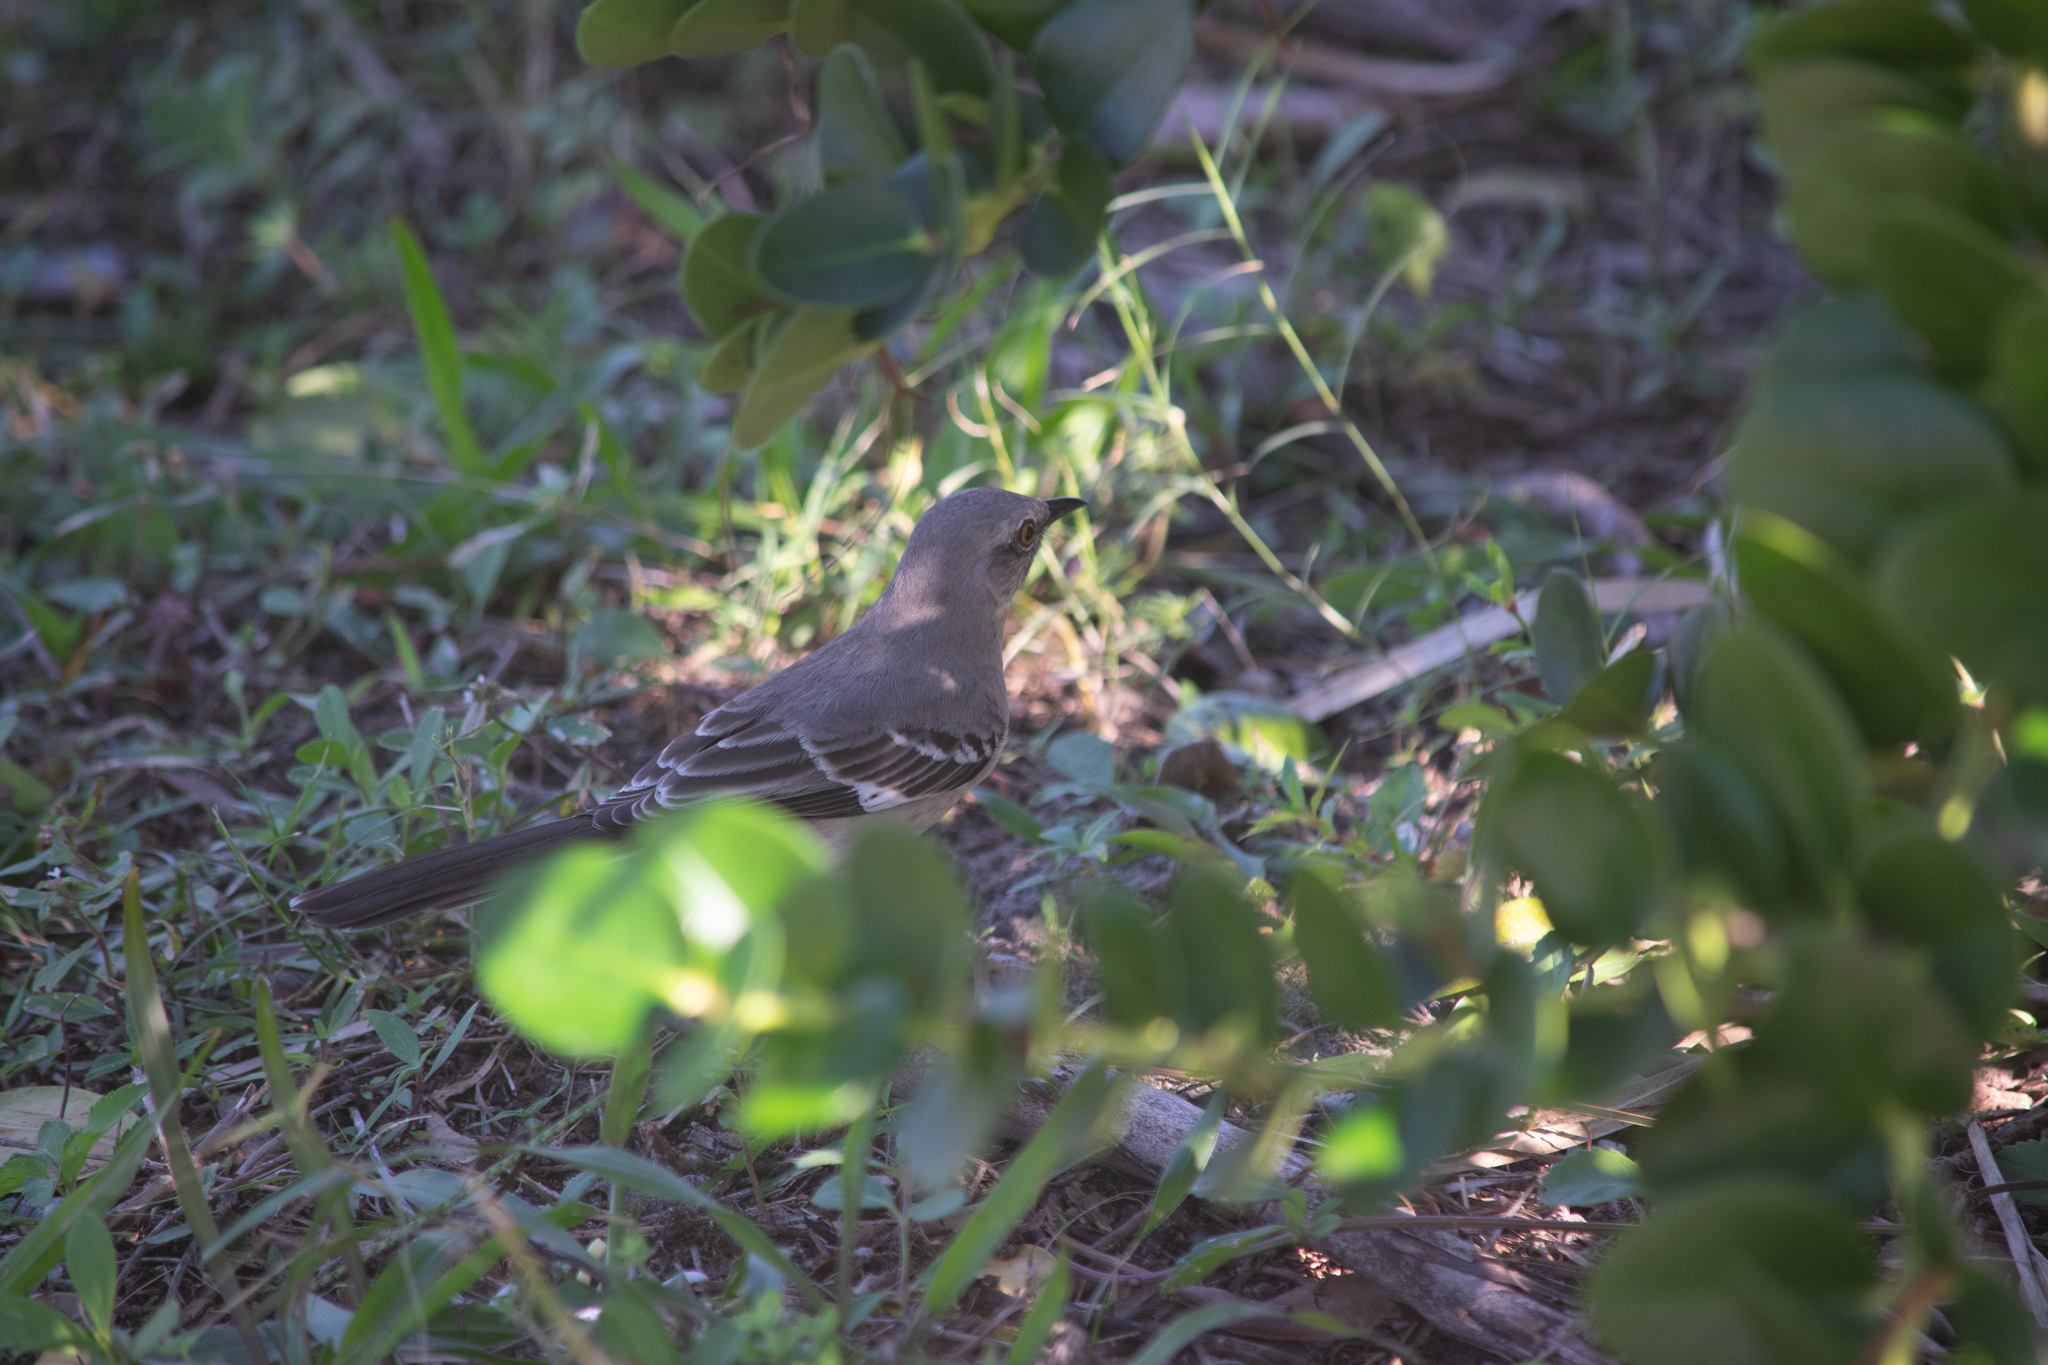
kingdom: Animalia
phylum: Chordata
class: Aves
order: Passeriformes
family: Mimidae
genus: Mimus
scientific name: Mimus polyglottos
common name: Northern mockingbird
